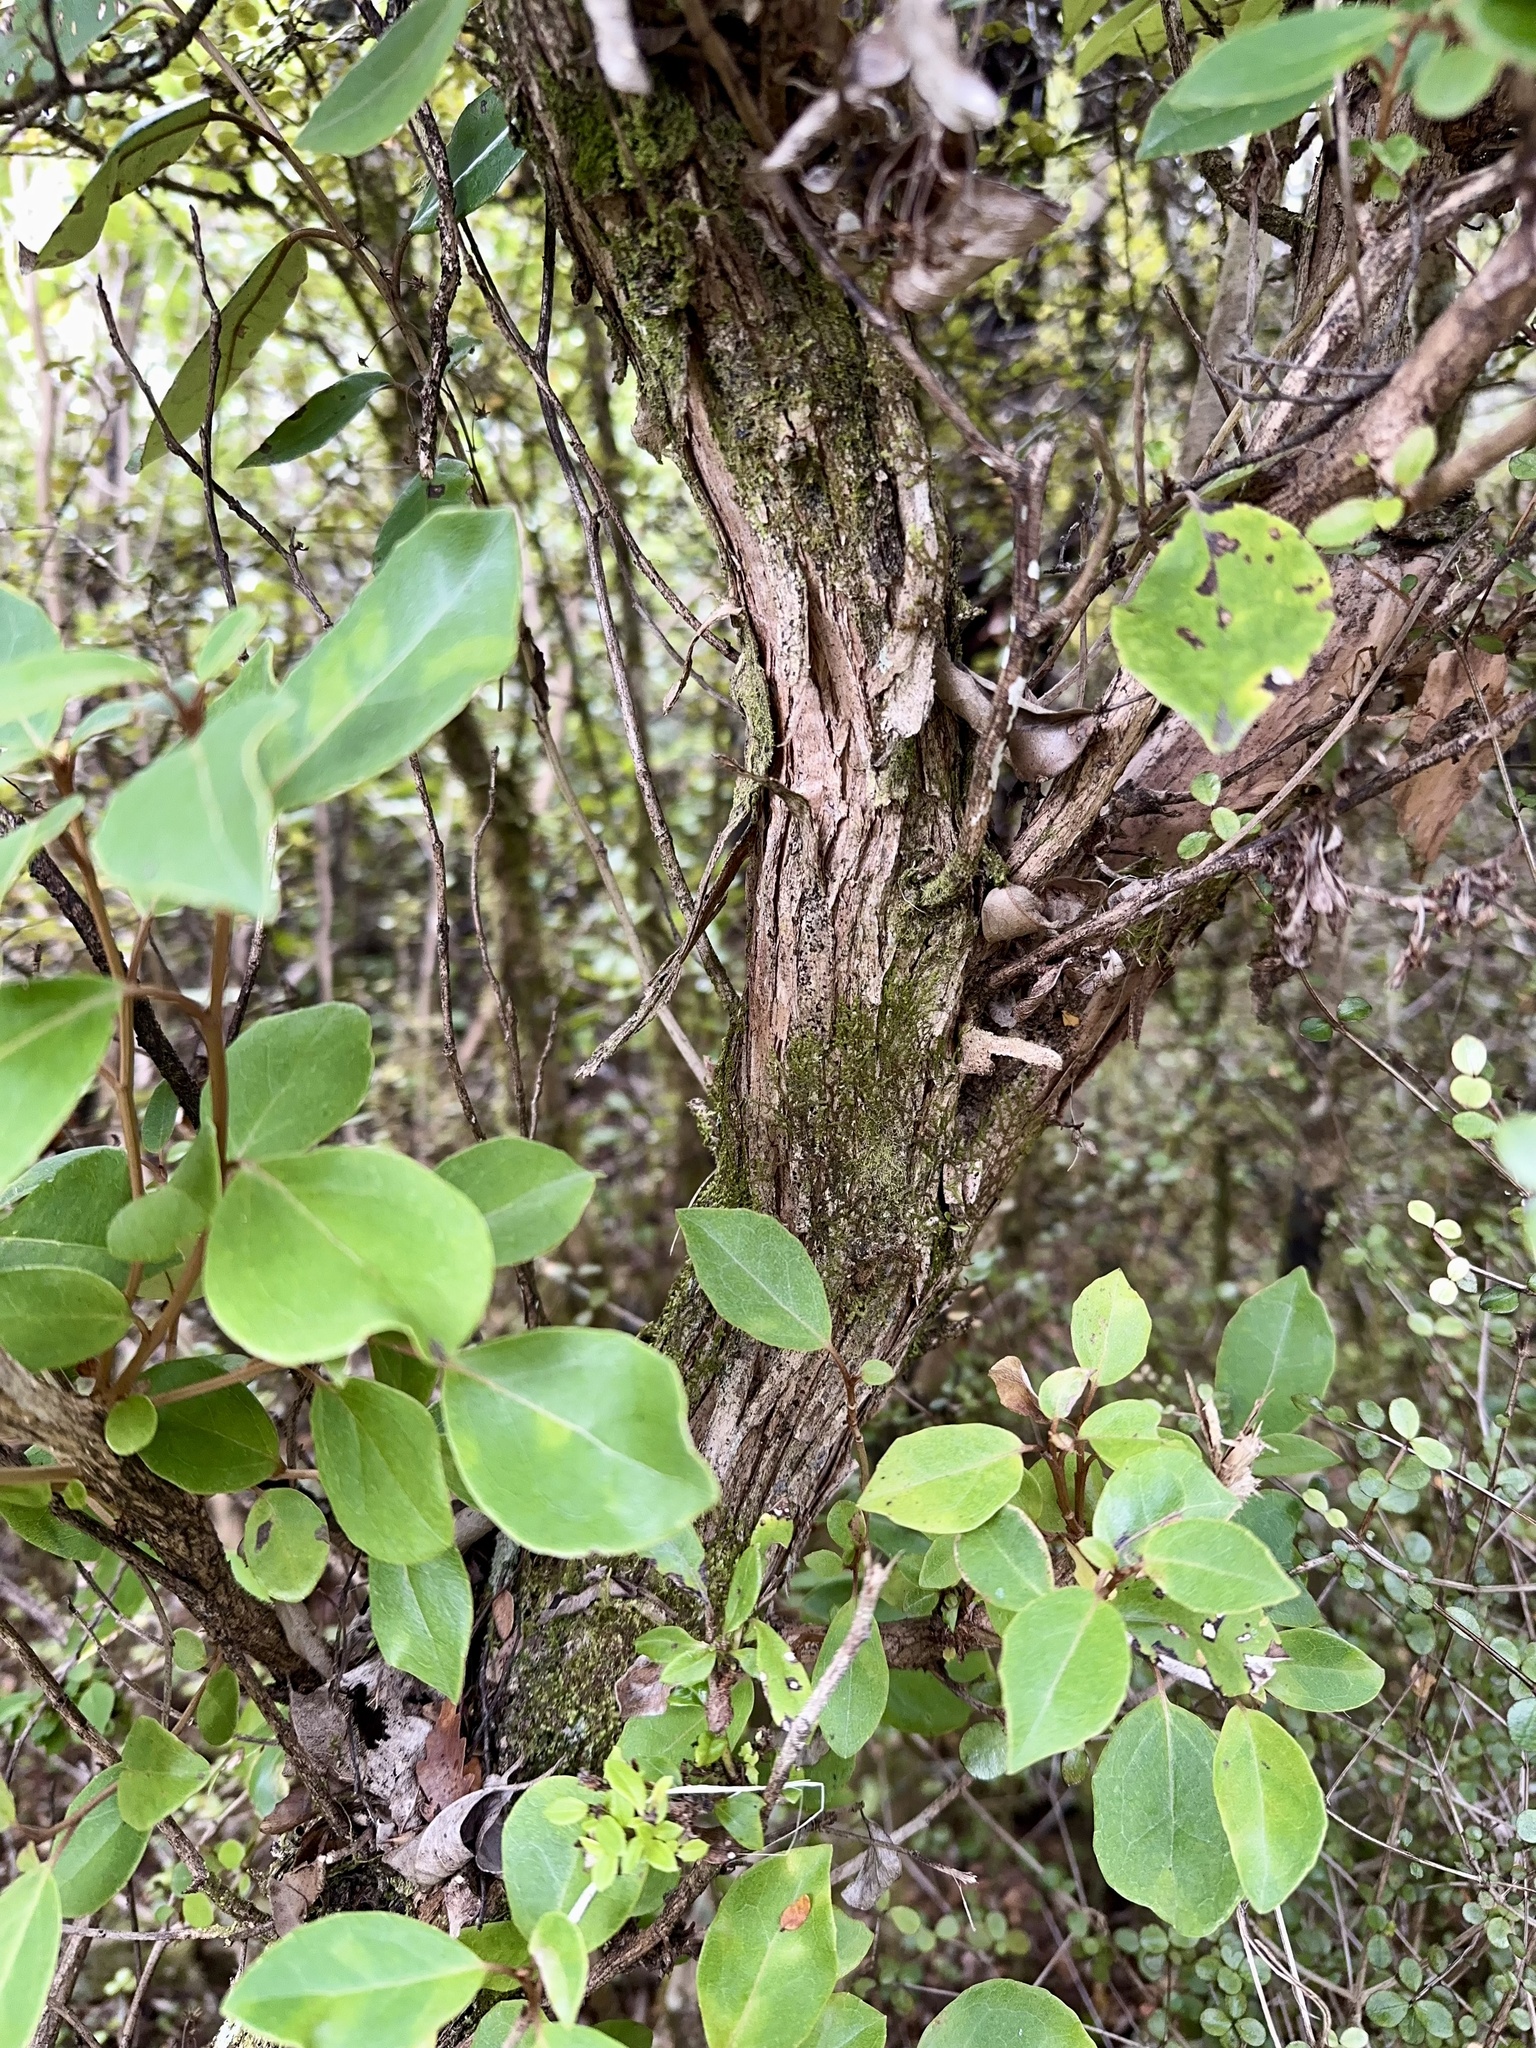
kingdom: Plantae
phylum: Tracheophyta
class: Magnoliopsida
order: Asterales
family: Asteraceae
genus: Olearia
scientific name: Olearia arborescens
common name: Glossy tree daisy
